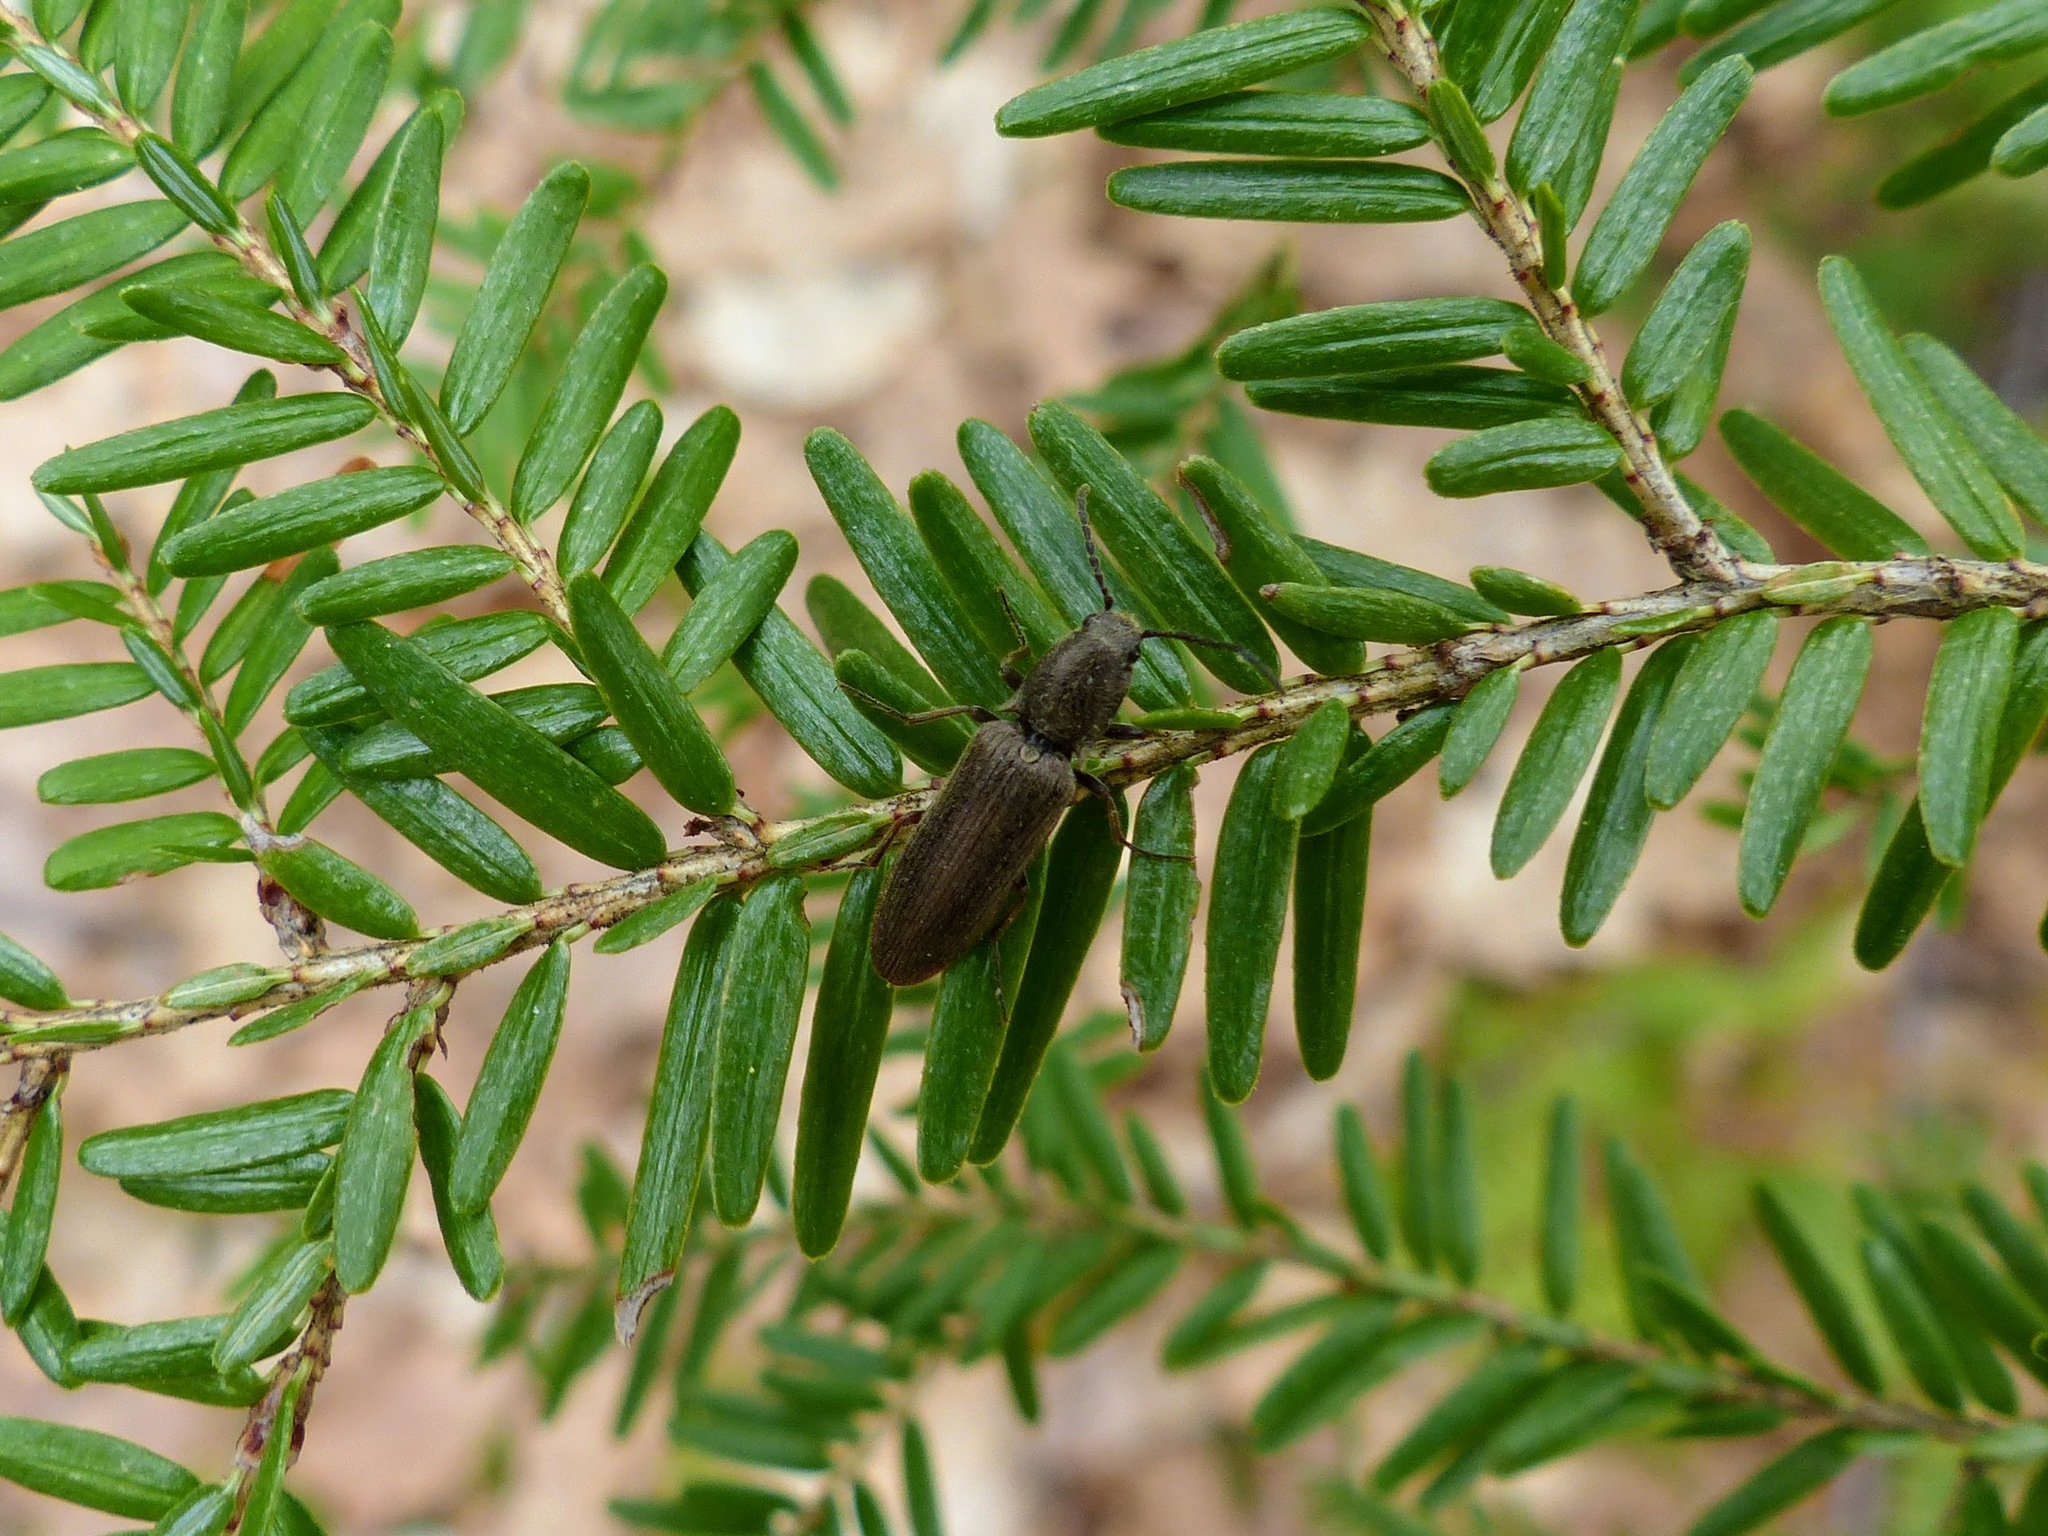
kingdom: Animalia
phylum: Arthropoda
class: Insecta
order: Coleoptera
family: Elateridae
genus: Sylvanelater
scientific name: Sylvanelater cylindriformis
